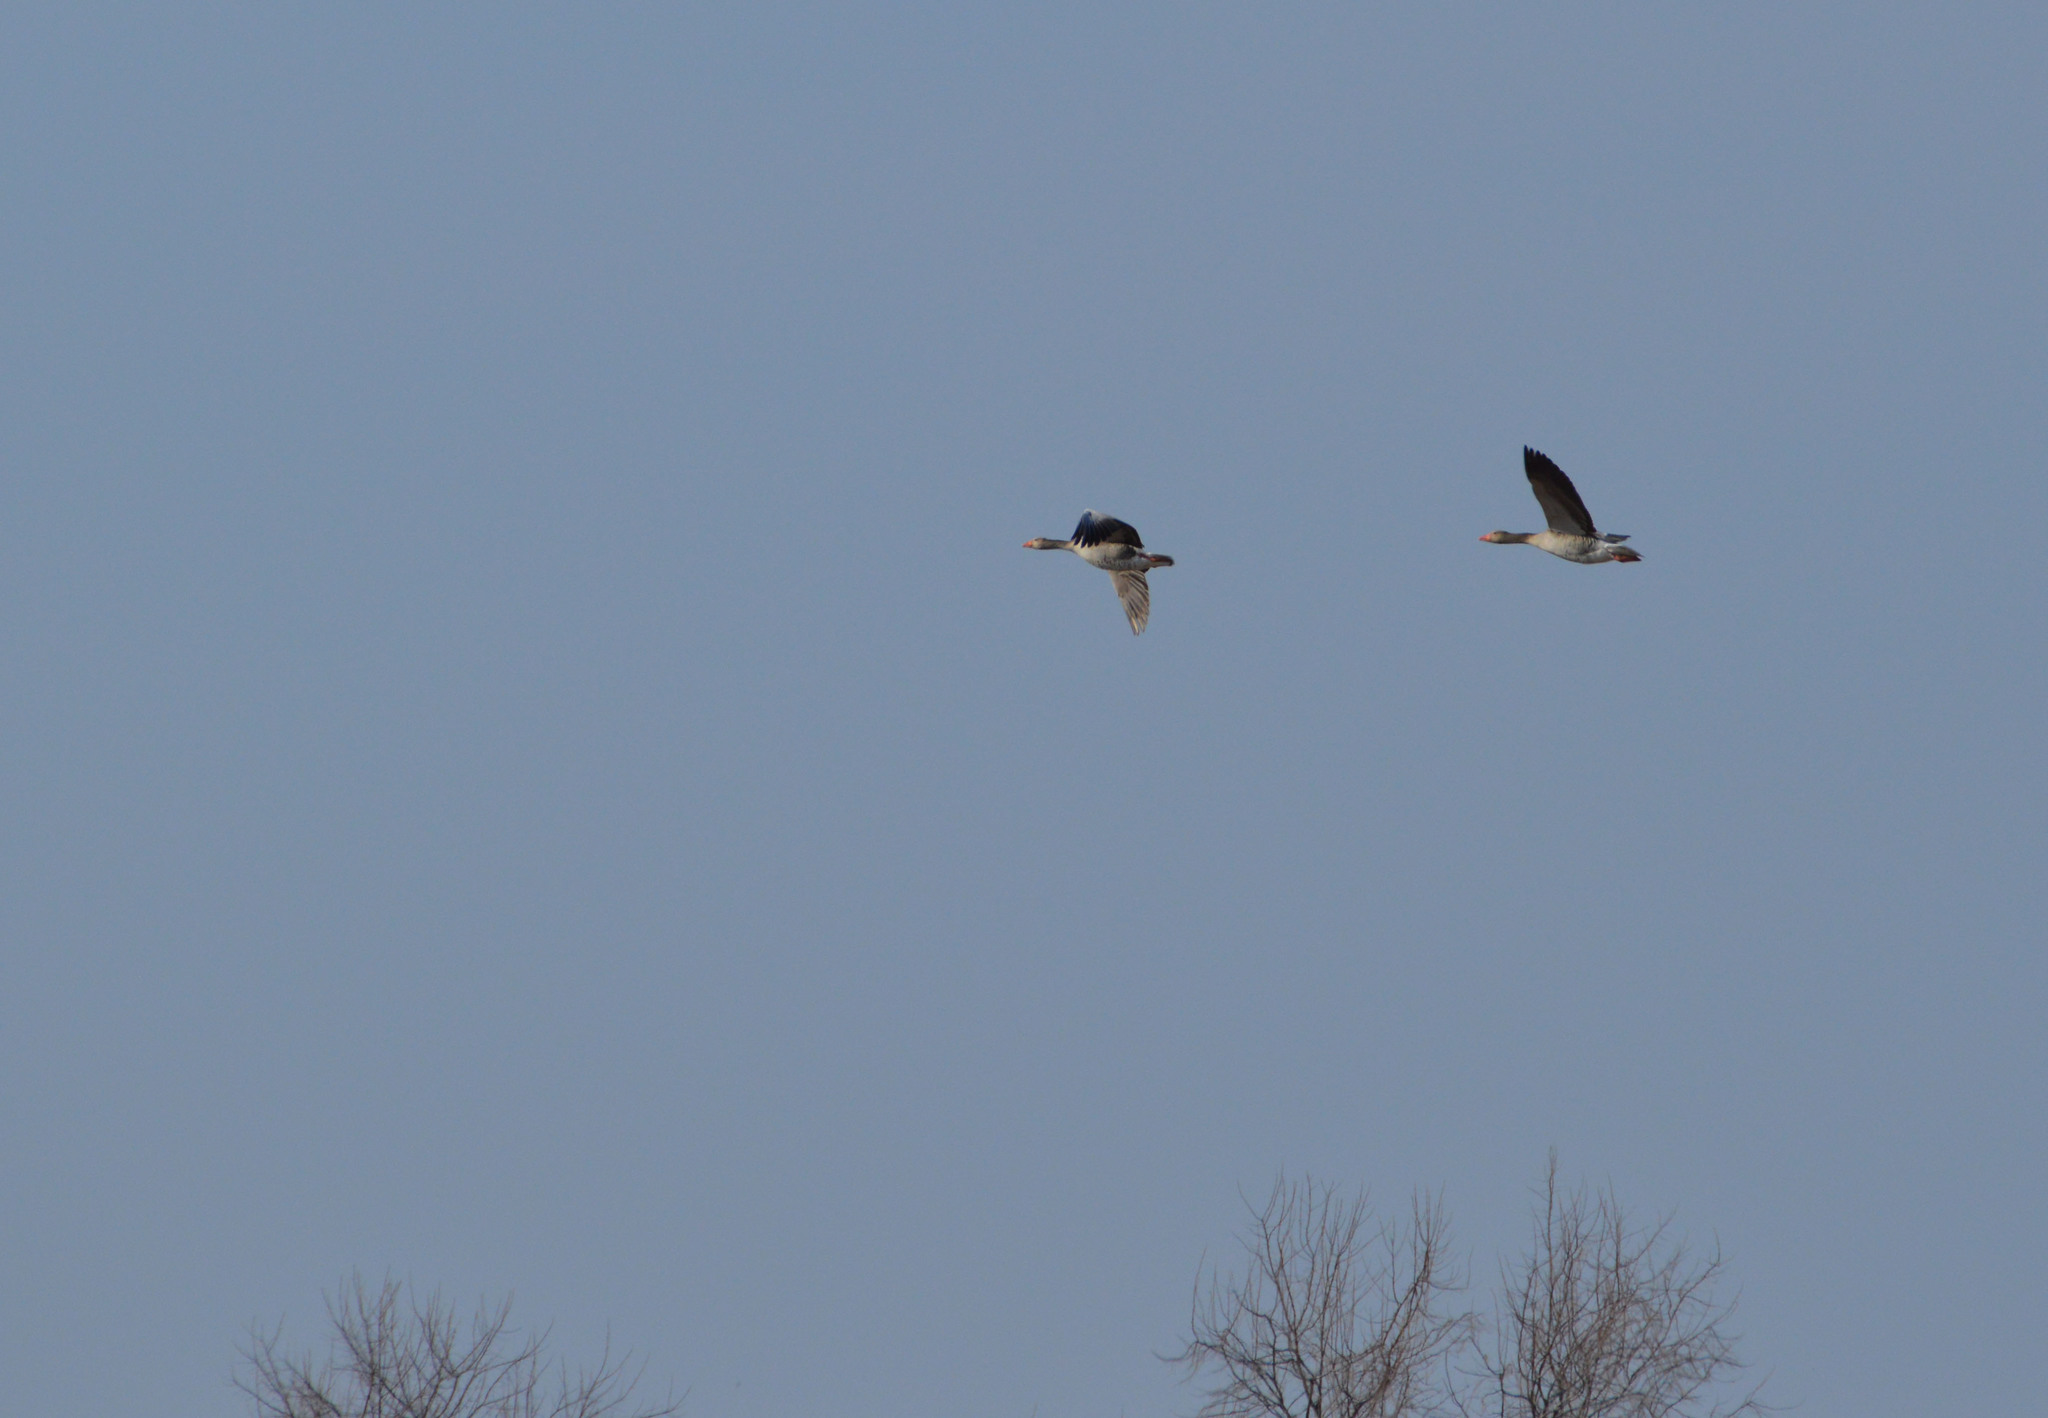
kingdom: Animalia
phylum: Chordata
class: Aves
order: Anseriformes
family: Anatidae
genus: Anser
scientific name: Anser anser
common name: Greylag goose
